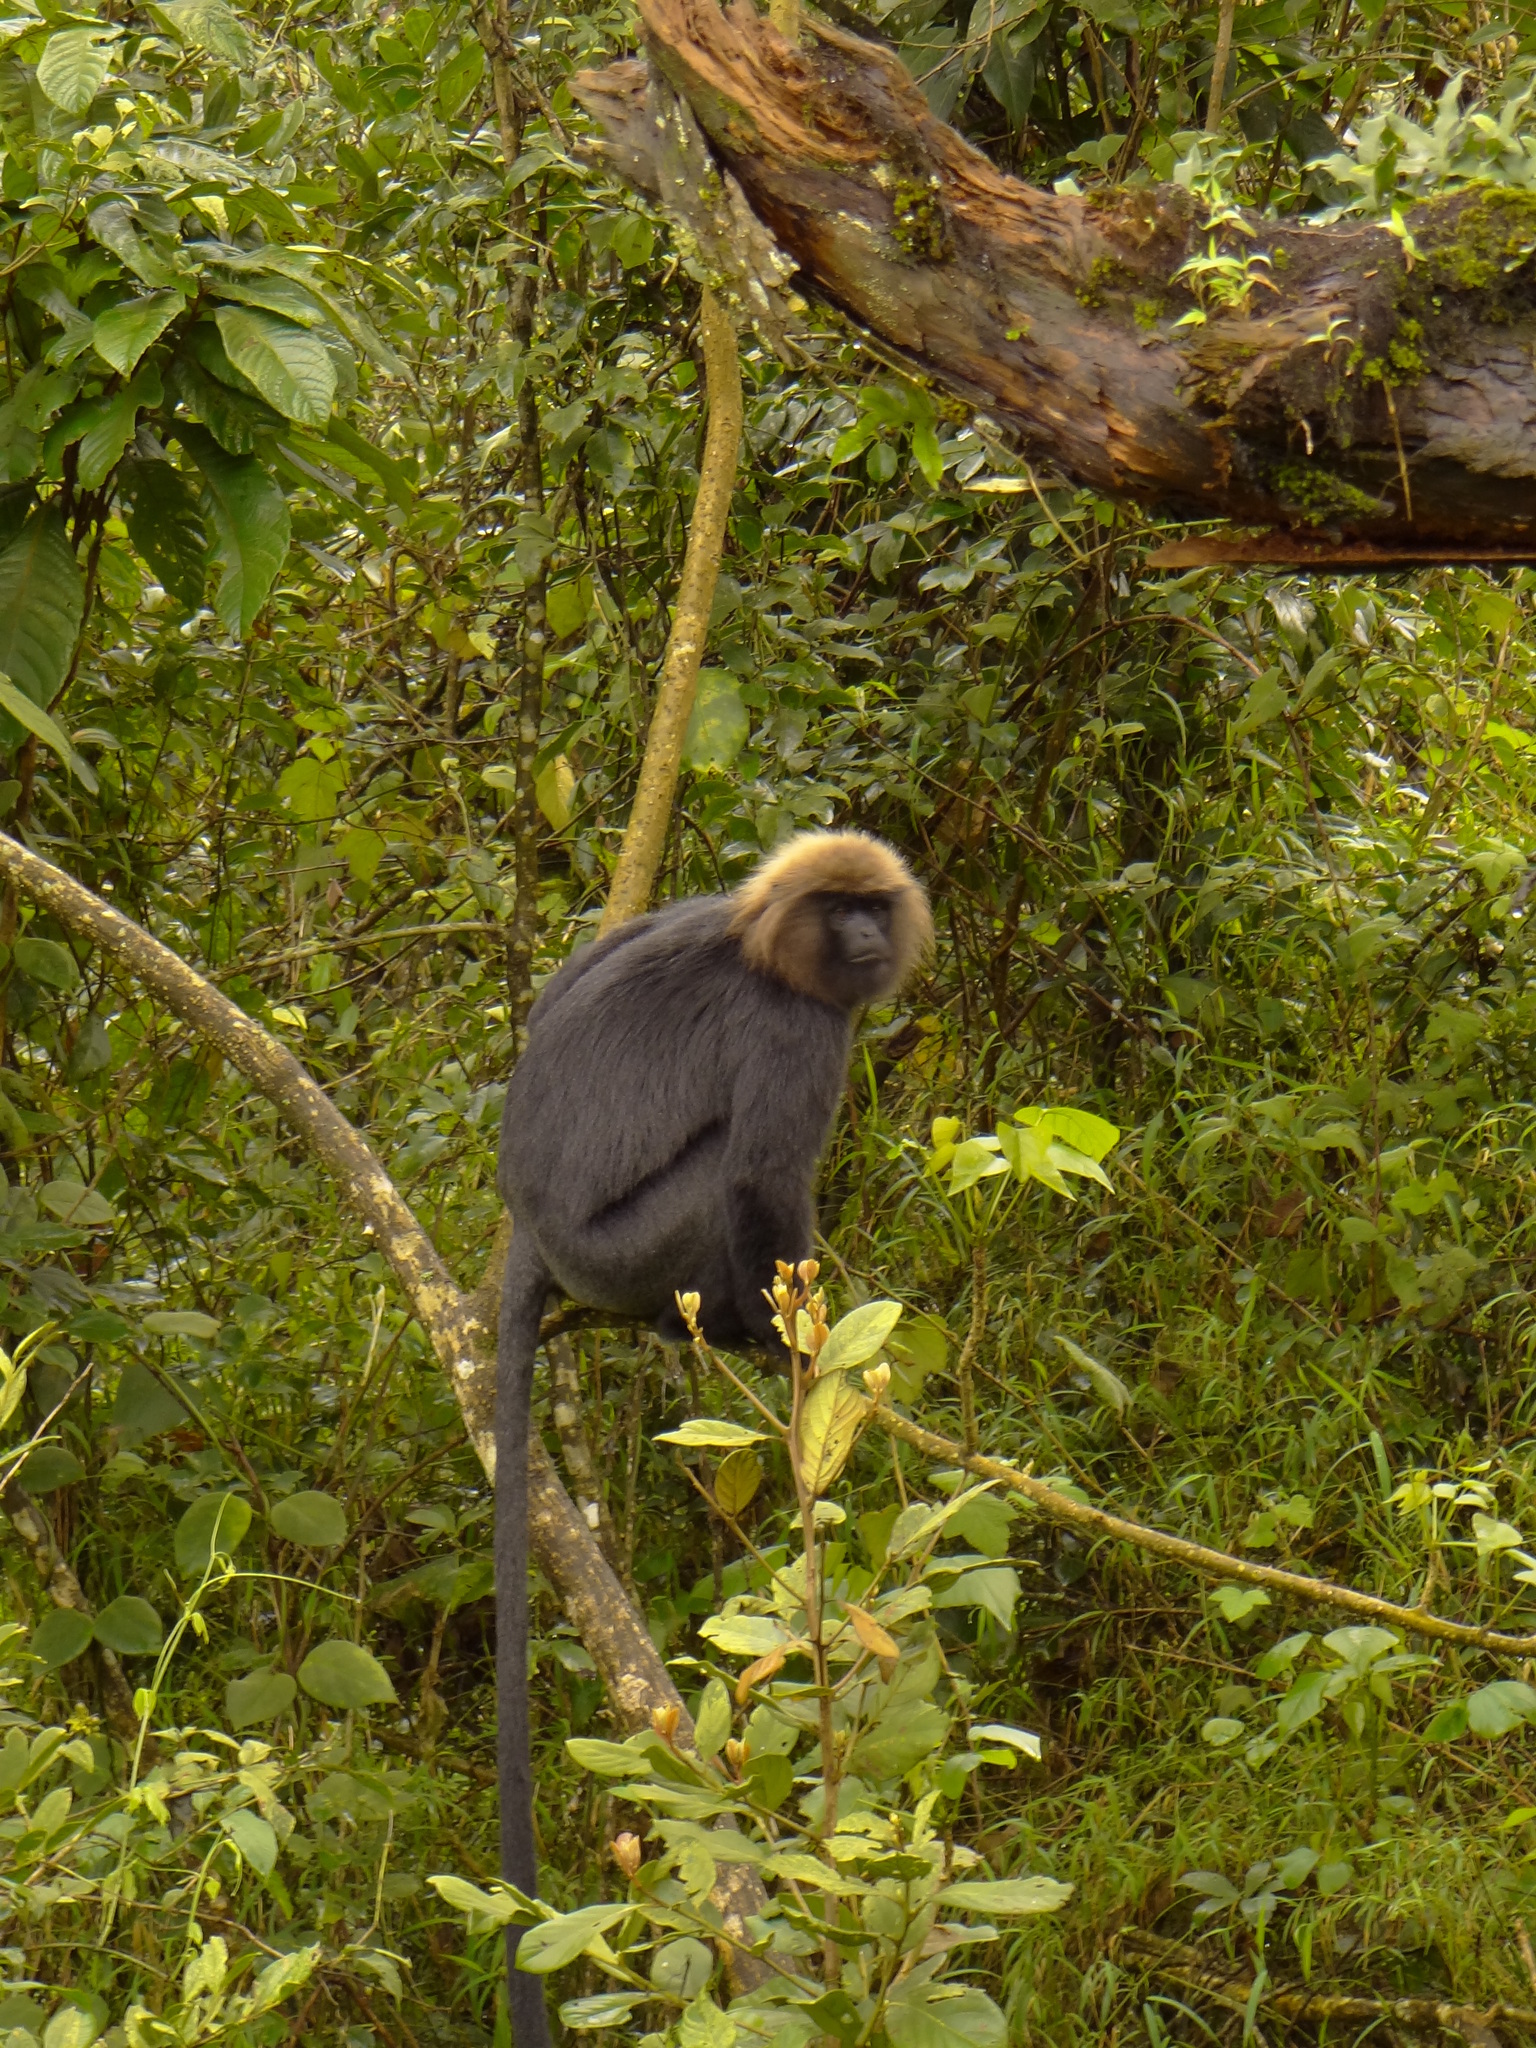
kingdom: Animalia
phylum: Chordata
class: Mammalia
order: Primates
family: Cercopithecidae
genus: Semnopithecus
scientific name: Semnopithecus johnii
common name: Nilgiri langur
